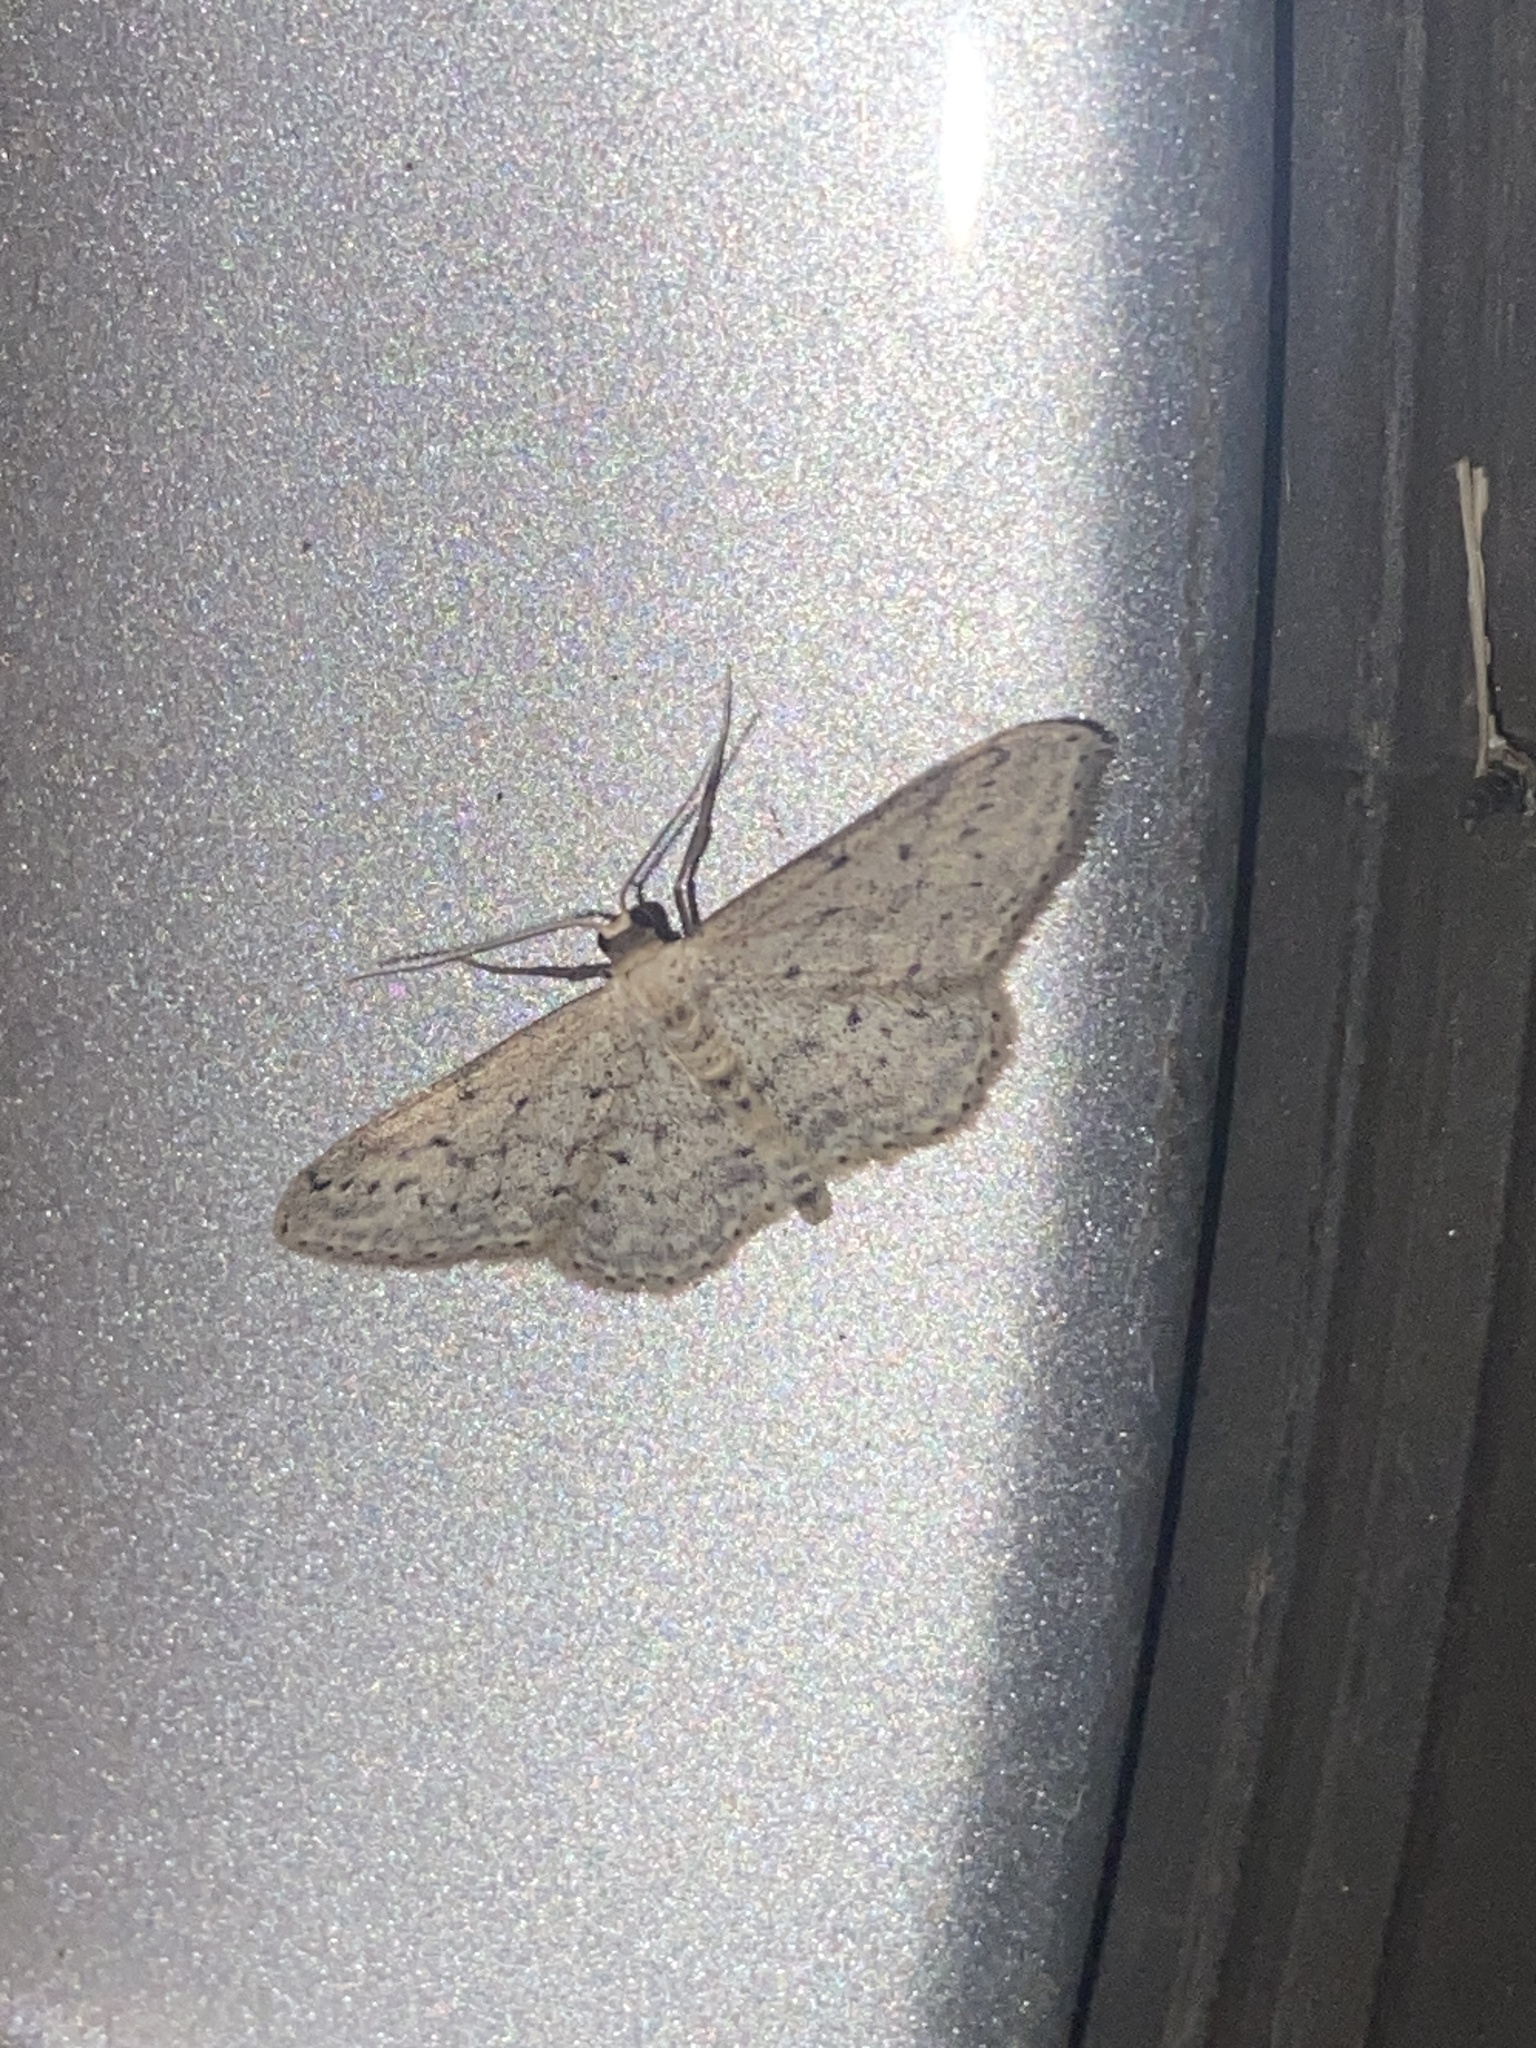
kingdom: Animalia
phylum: Arthropoda
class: Insecta
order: Lepidoptera
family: Geometridae
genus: Idaea
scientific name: Idaea seriata
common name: Small dusty wave
